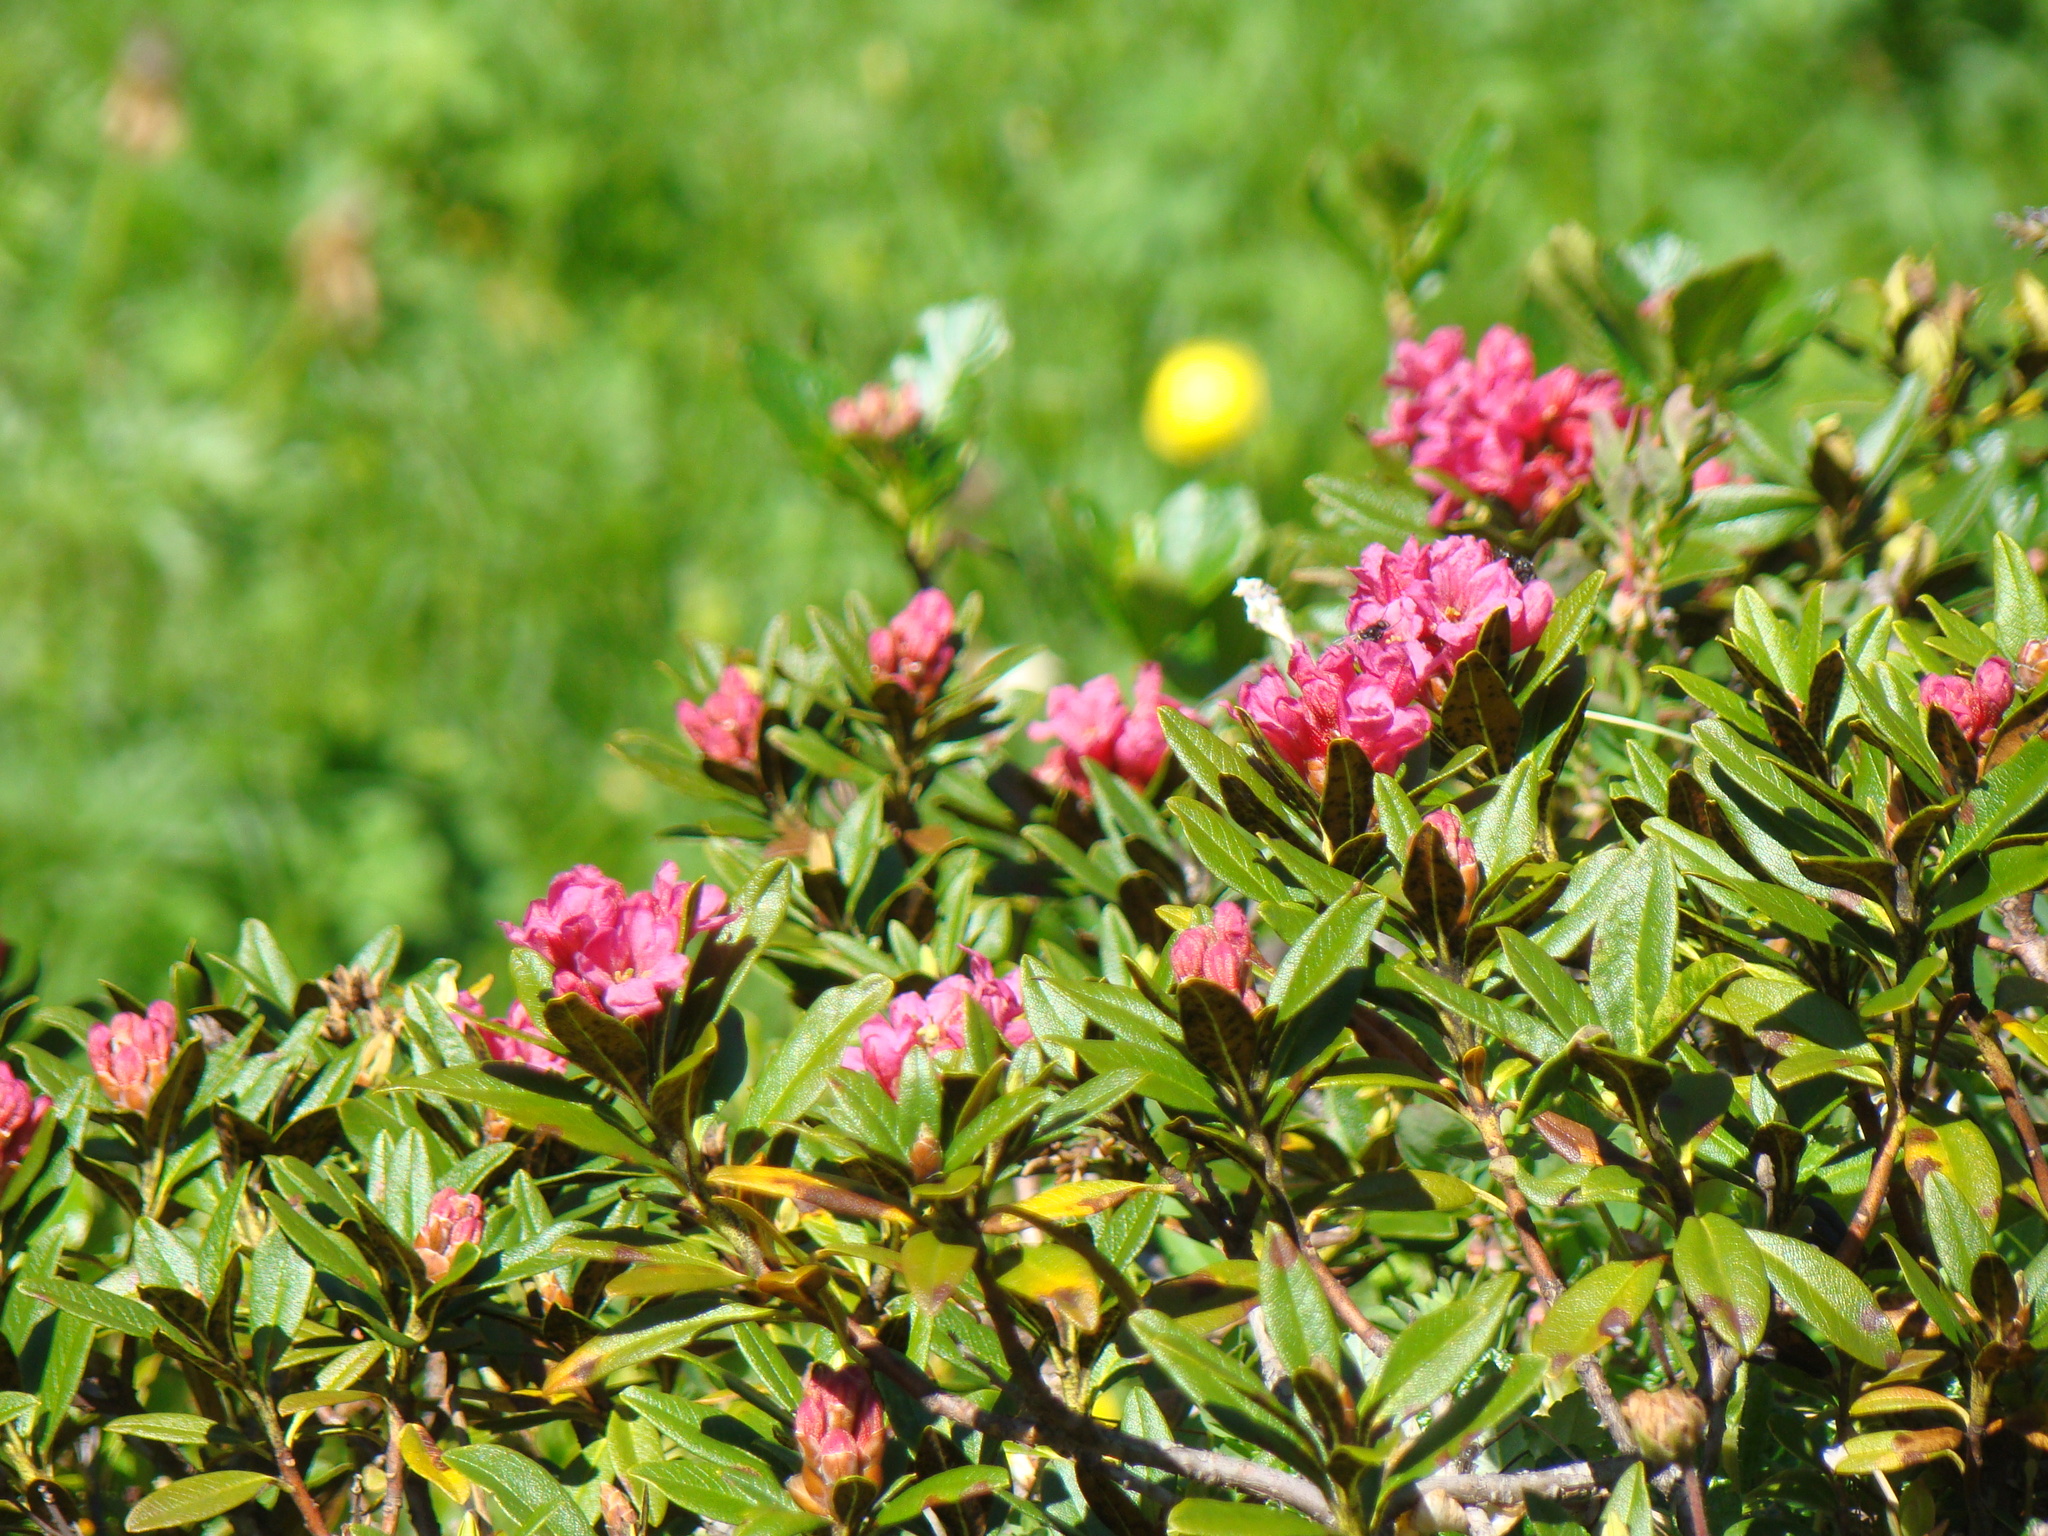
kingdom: Plantae
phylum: Tracheophyta
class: Magnoliopsida
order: Ericales
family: Ericaceae
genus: Rhododendron
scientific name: Rhododendron ferrugineum
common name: Alpenrose
